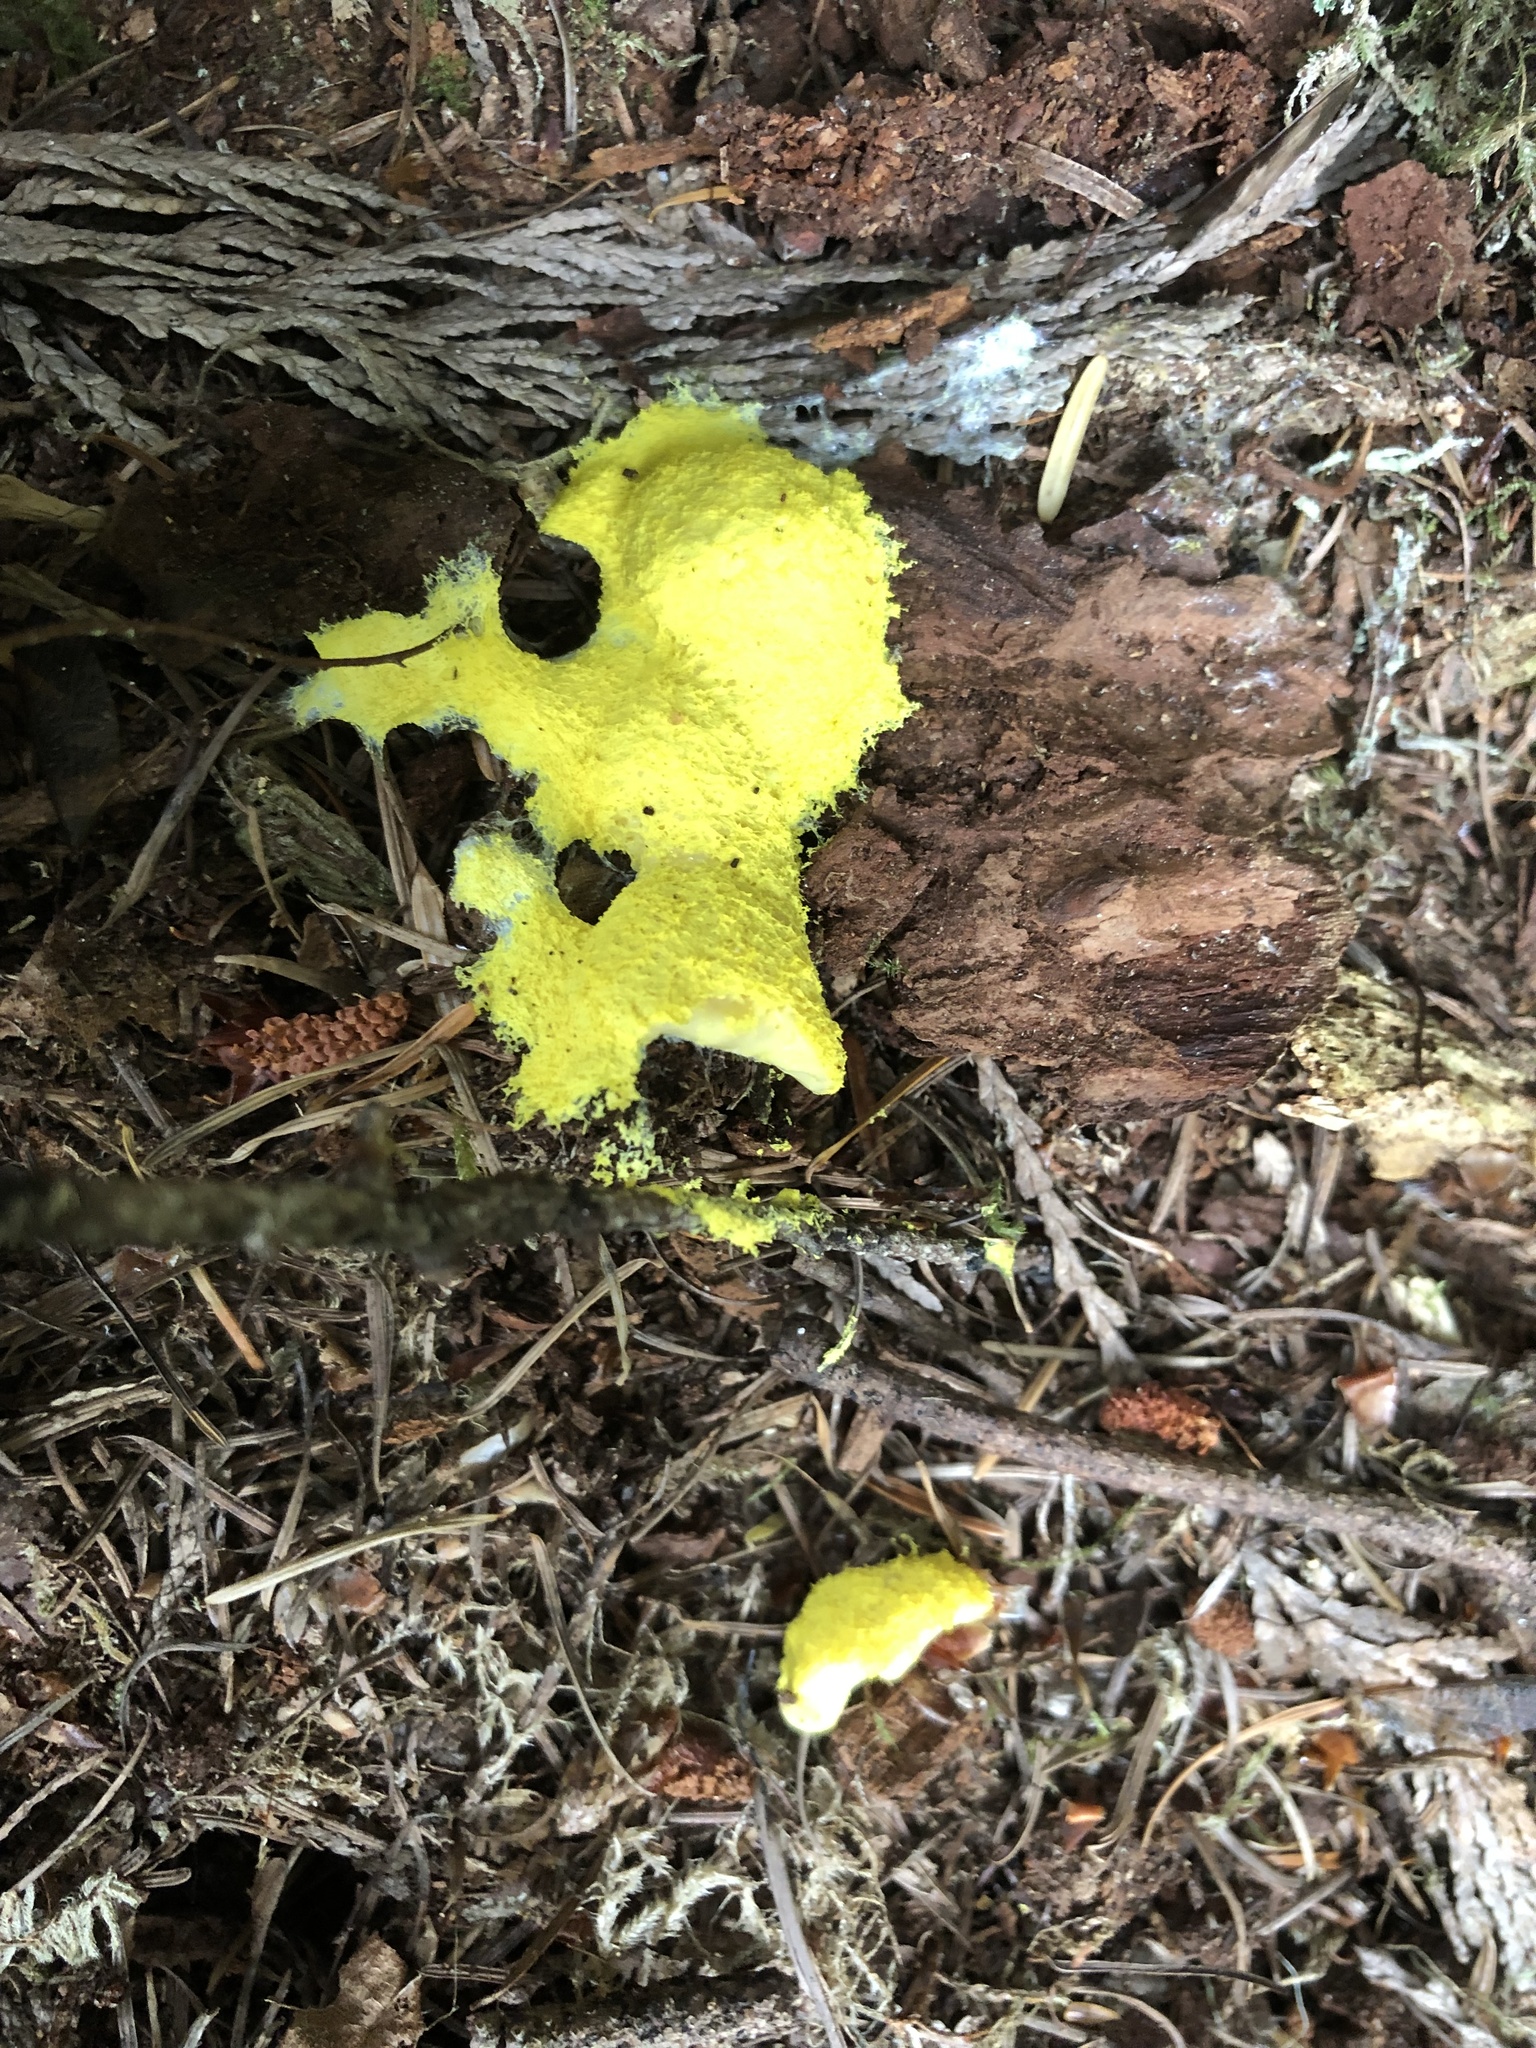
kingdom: Protozoa
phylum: Mycetozoa
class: Myxomycetes
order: Physarales
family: Physaraceae
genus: Fuligo
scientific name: Fuligo septica
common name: Dog vomit slime mold
